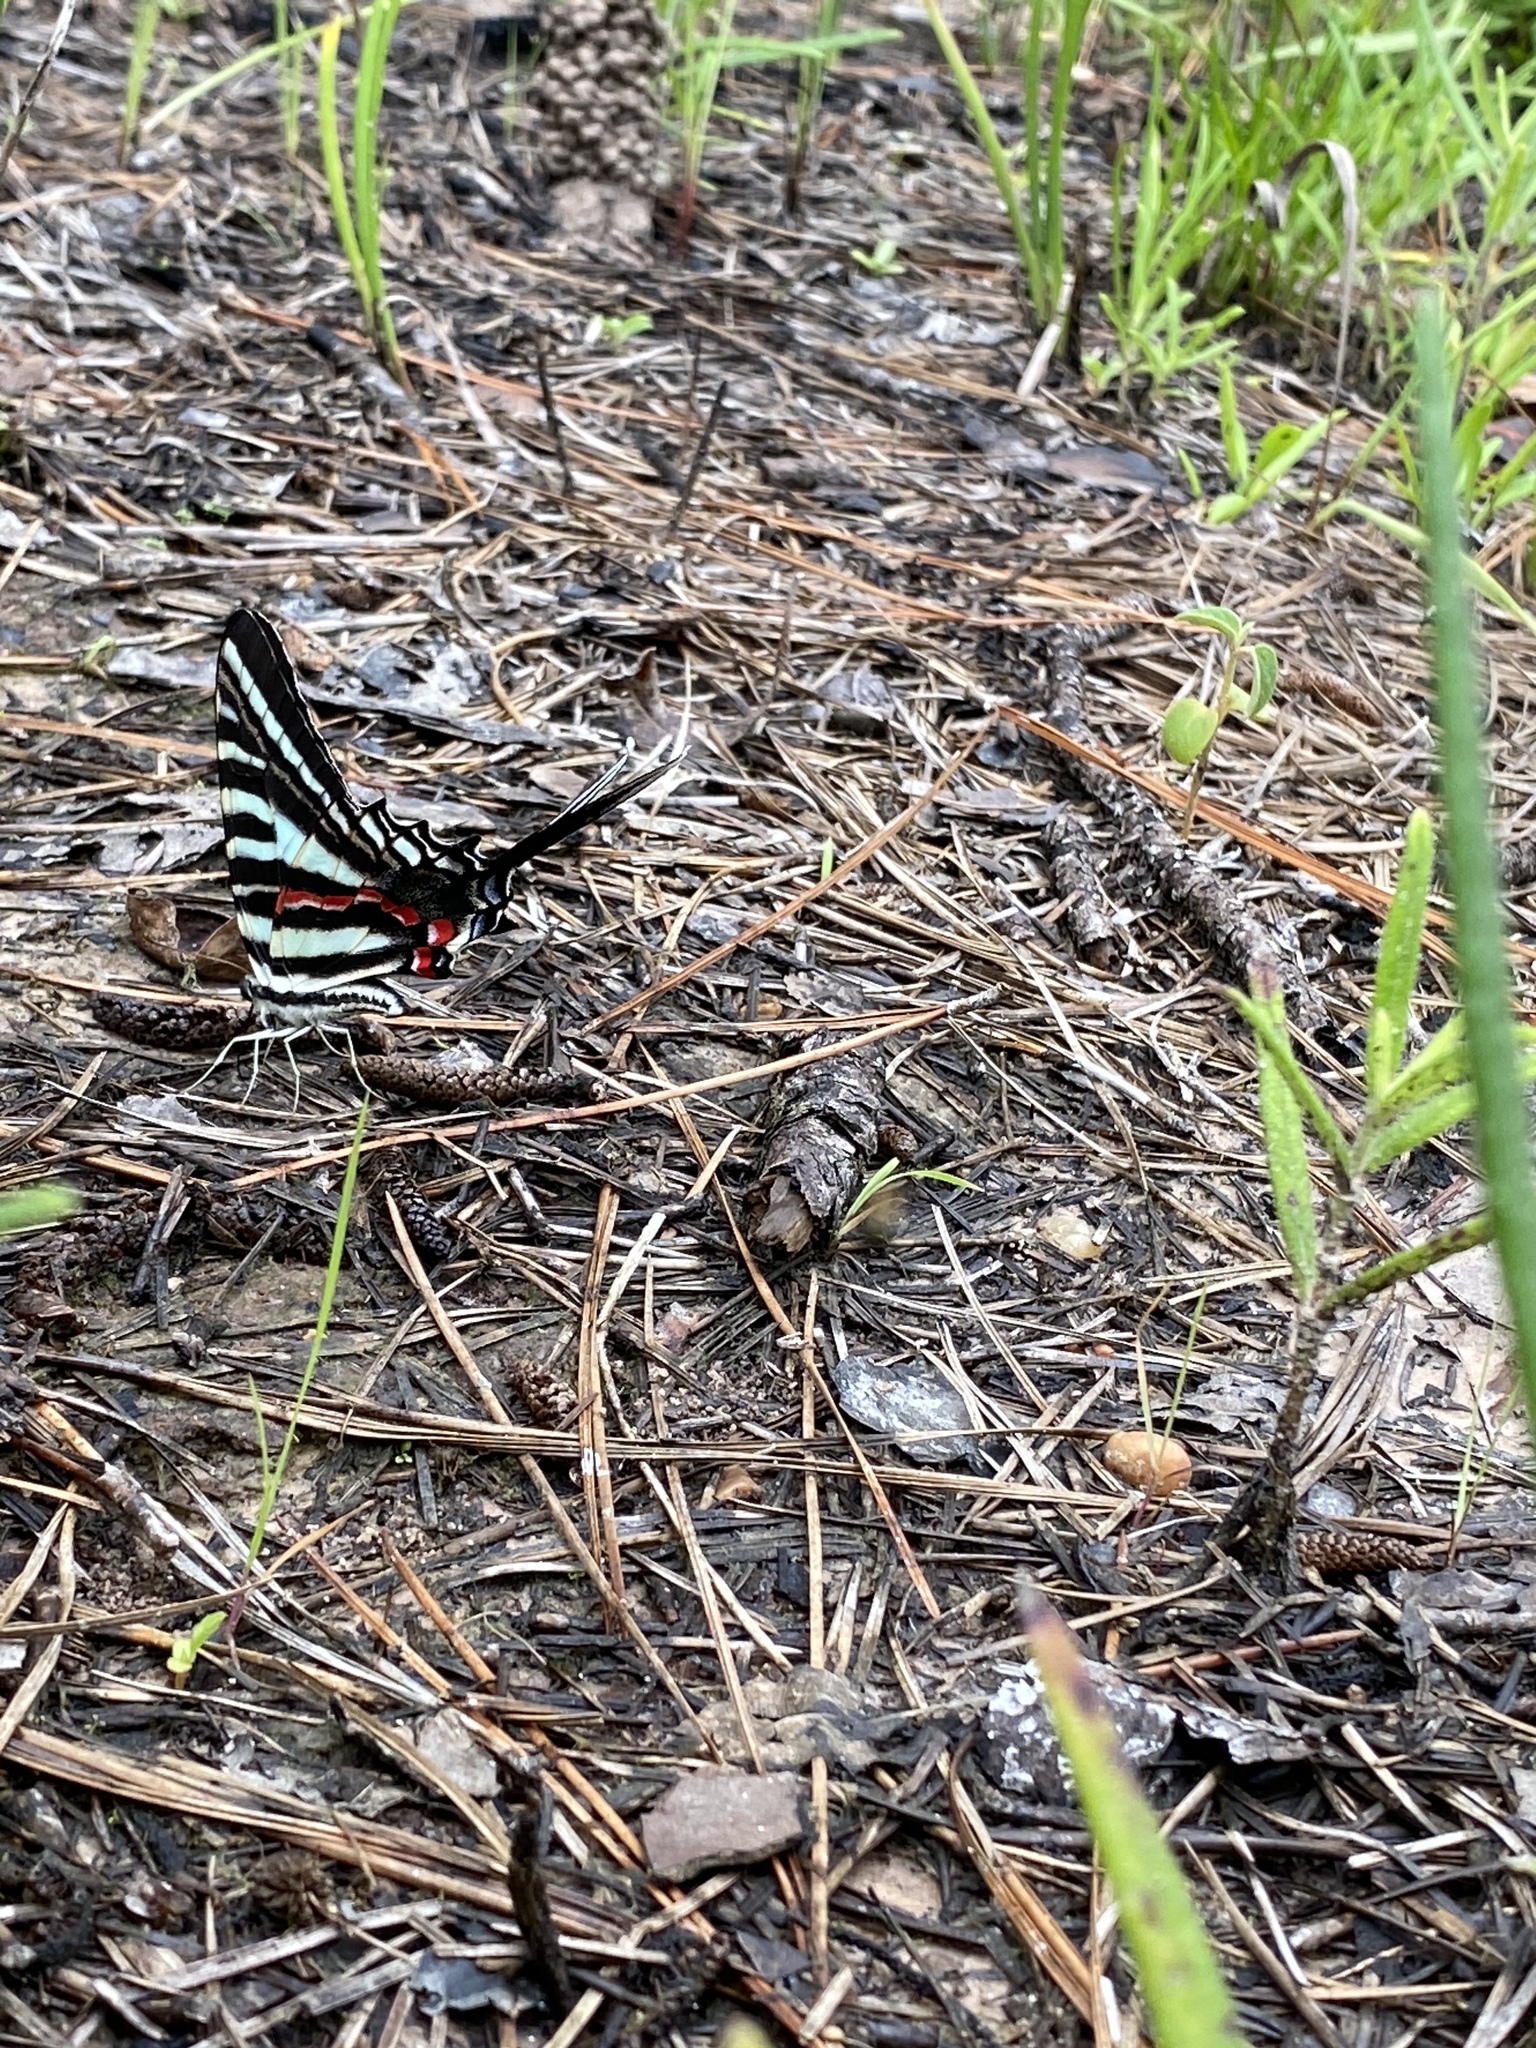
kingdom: Animalia
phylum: Arthropoda
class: Insecta
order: Lepidoptera
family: Papilionidae
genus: Protographium
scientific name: Protographium marcellus
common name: Zebra swallowtail
